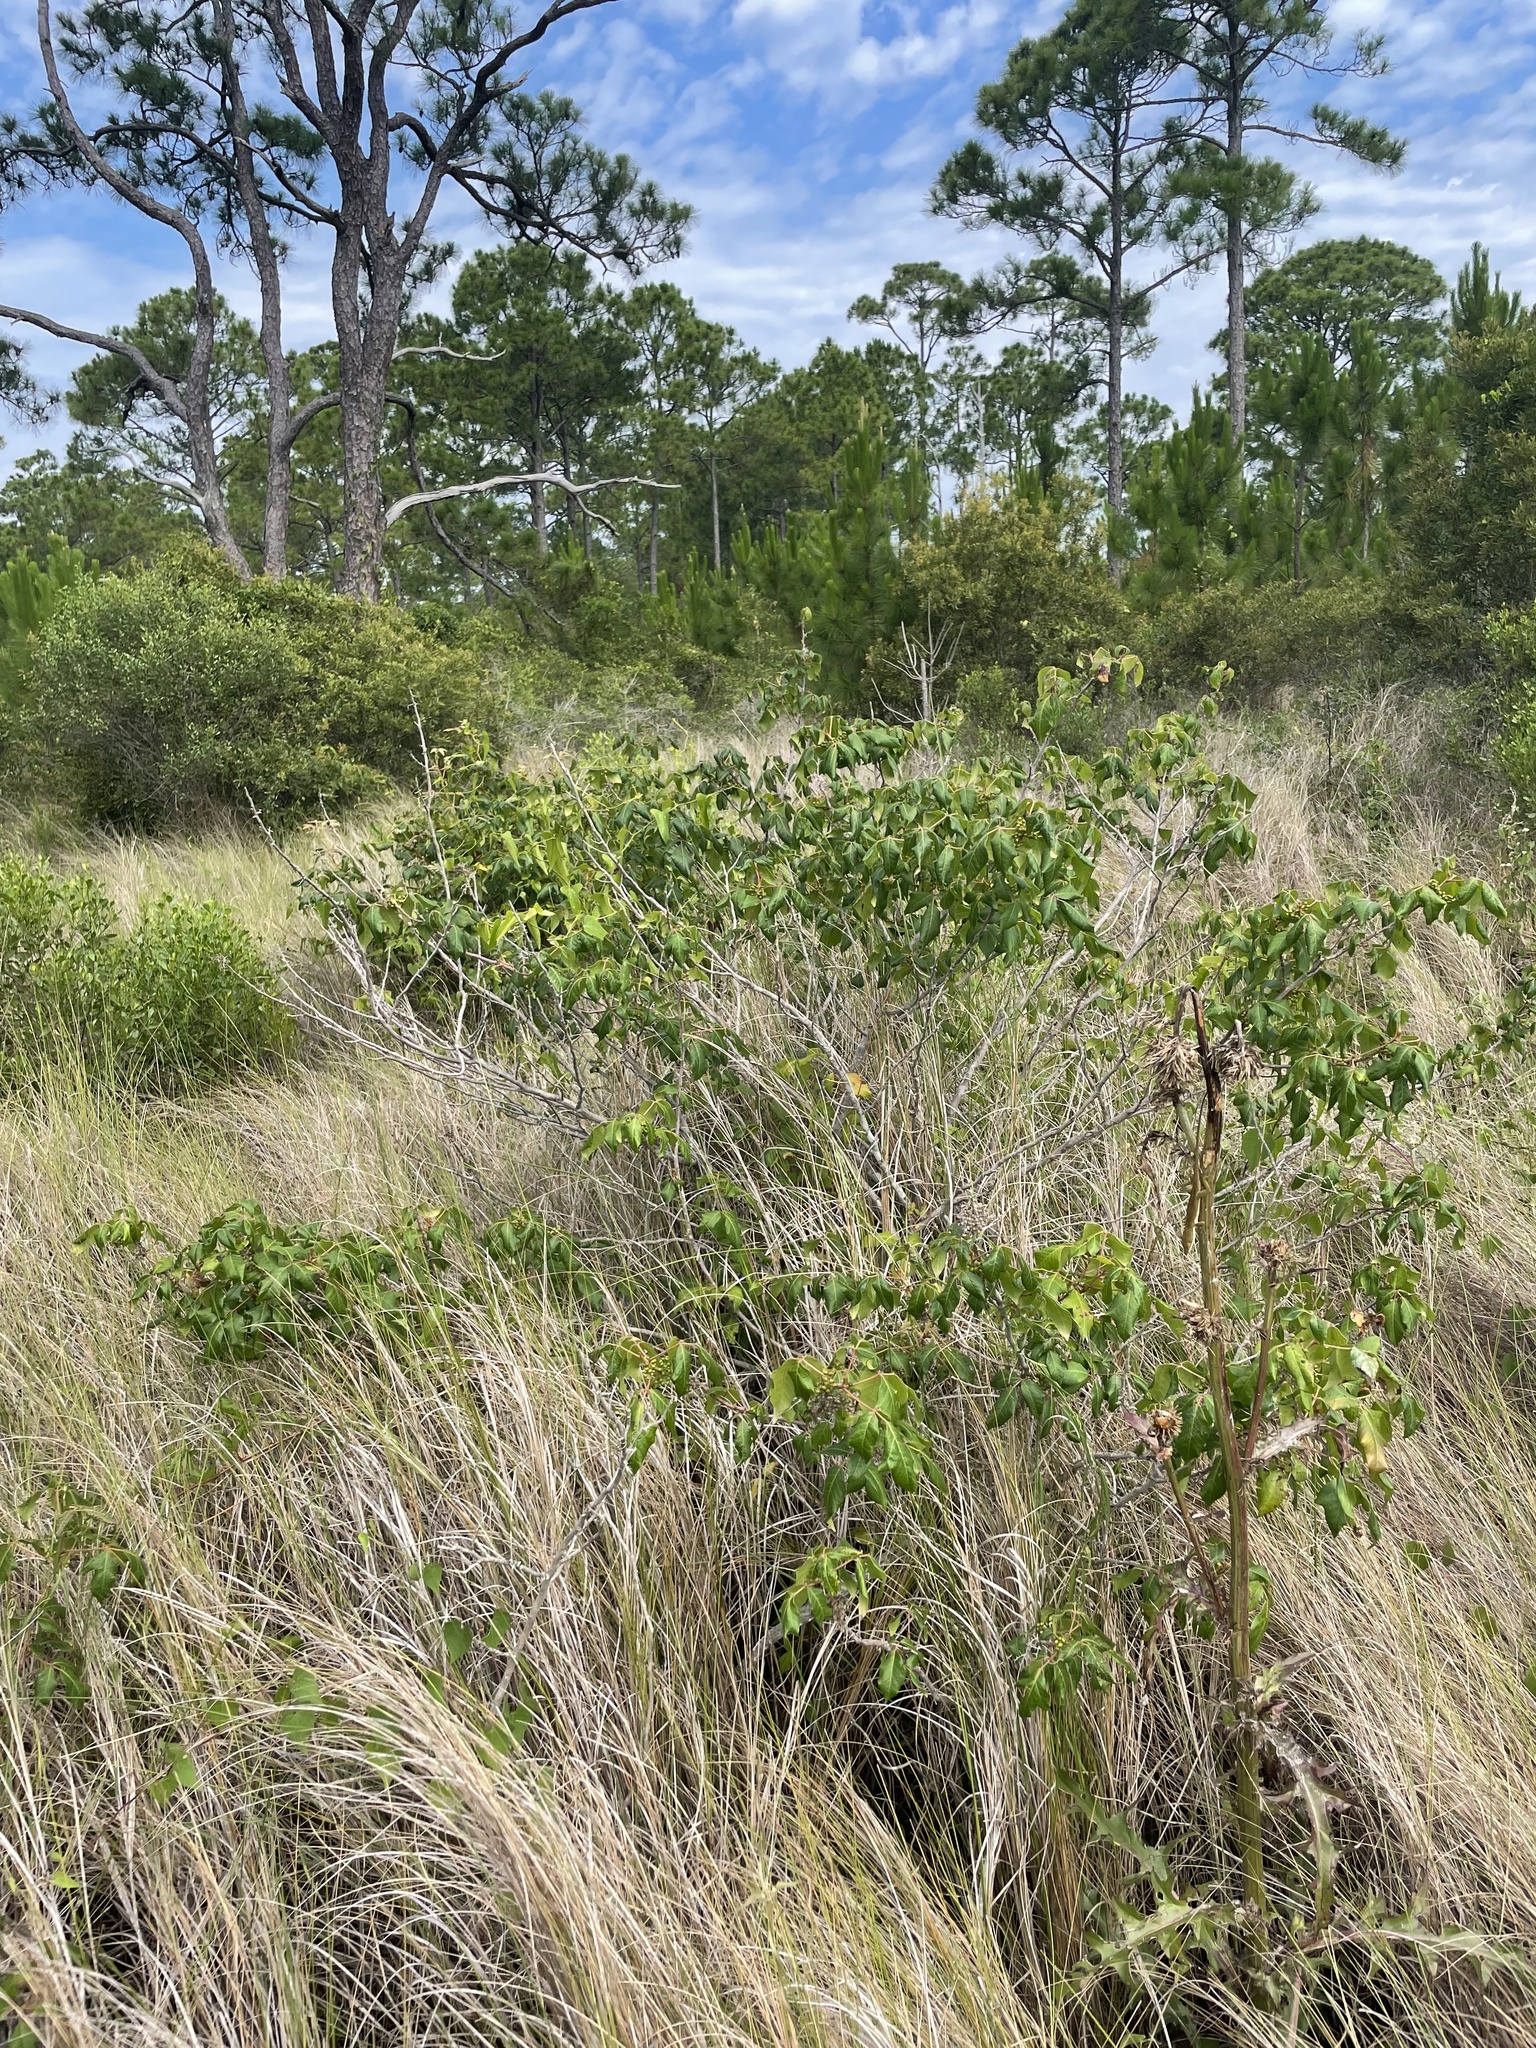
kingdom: Plantae
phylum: Tracheophyta
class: Magnoliopsida
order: Sapindales
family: Anacardiaceae
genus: Toxicodendron
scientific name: Toxicodendron radicans
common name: Poison ivy
